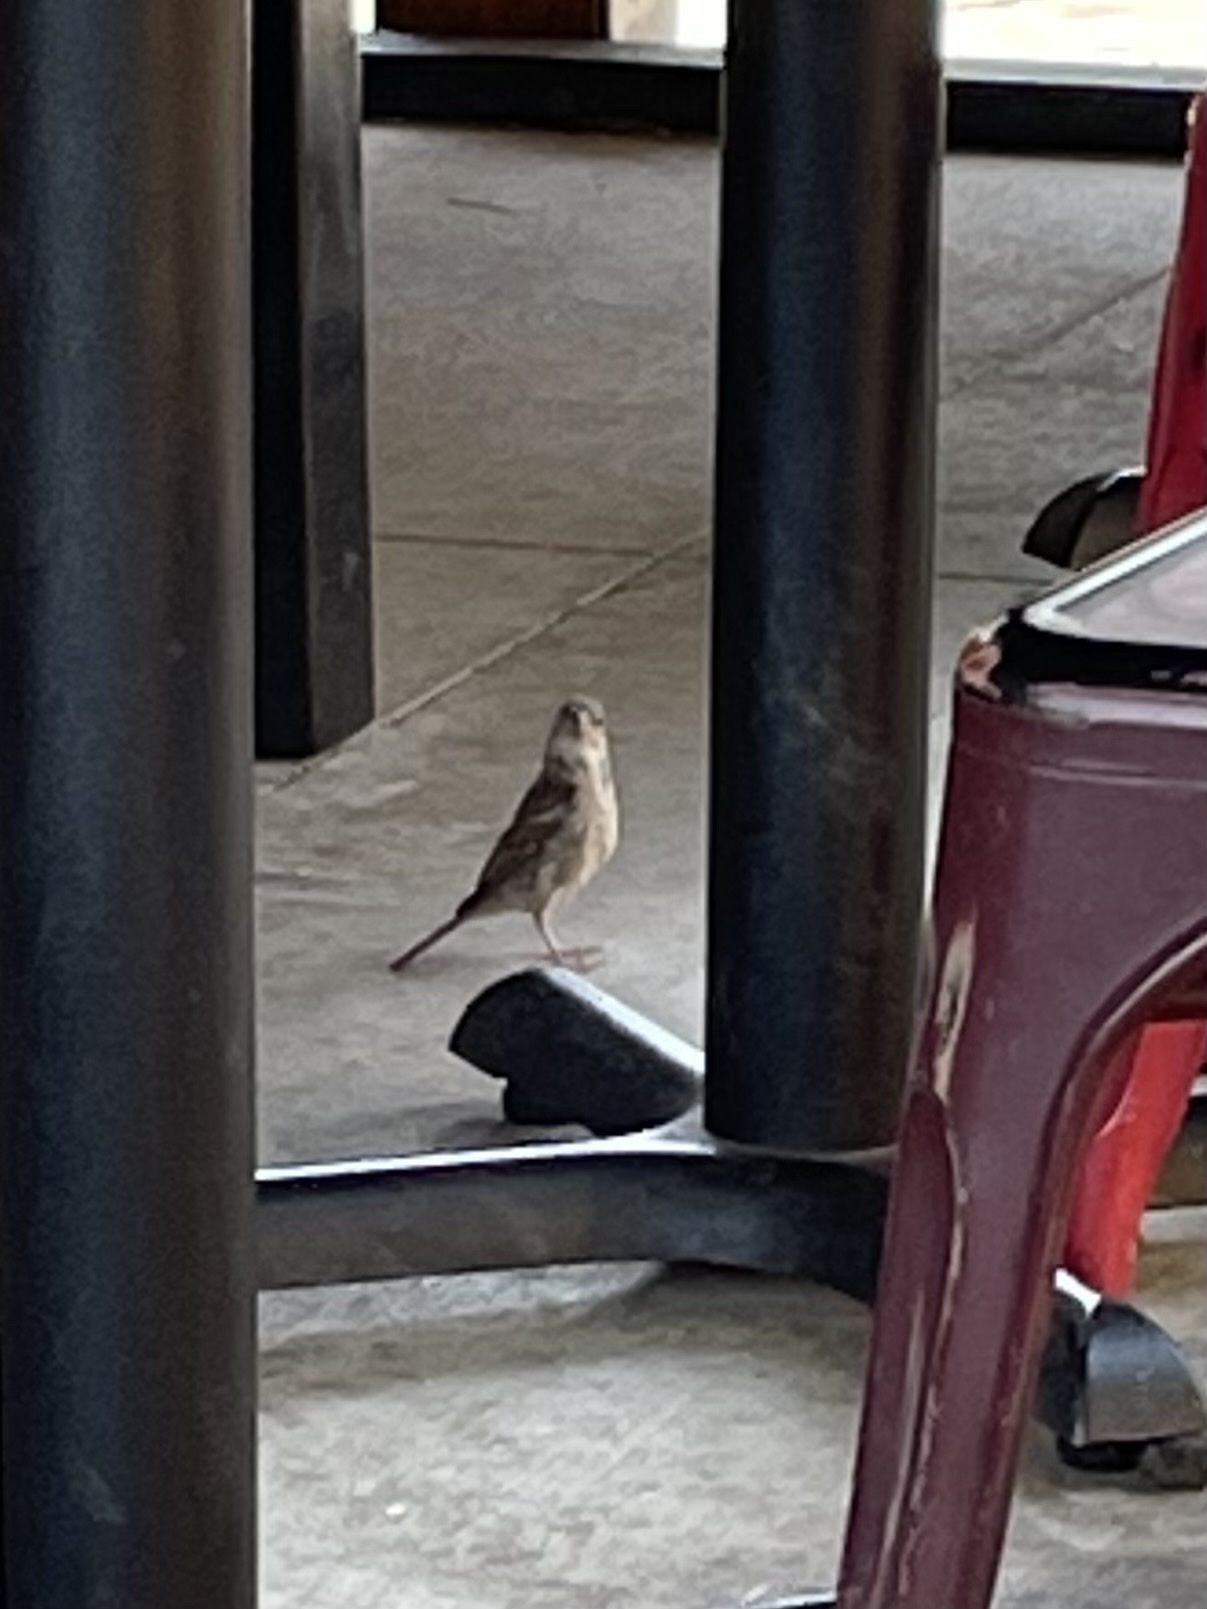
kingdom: Animalia
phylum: Chordata
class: Aves
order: Passeriformes
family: Passeridae
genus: Passer
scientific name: Passer domesticus
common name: House sparrow
